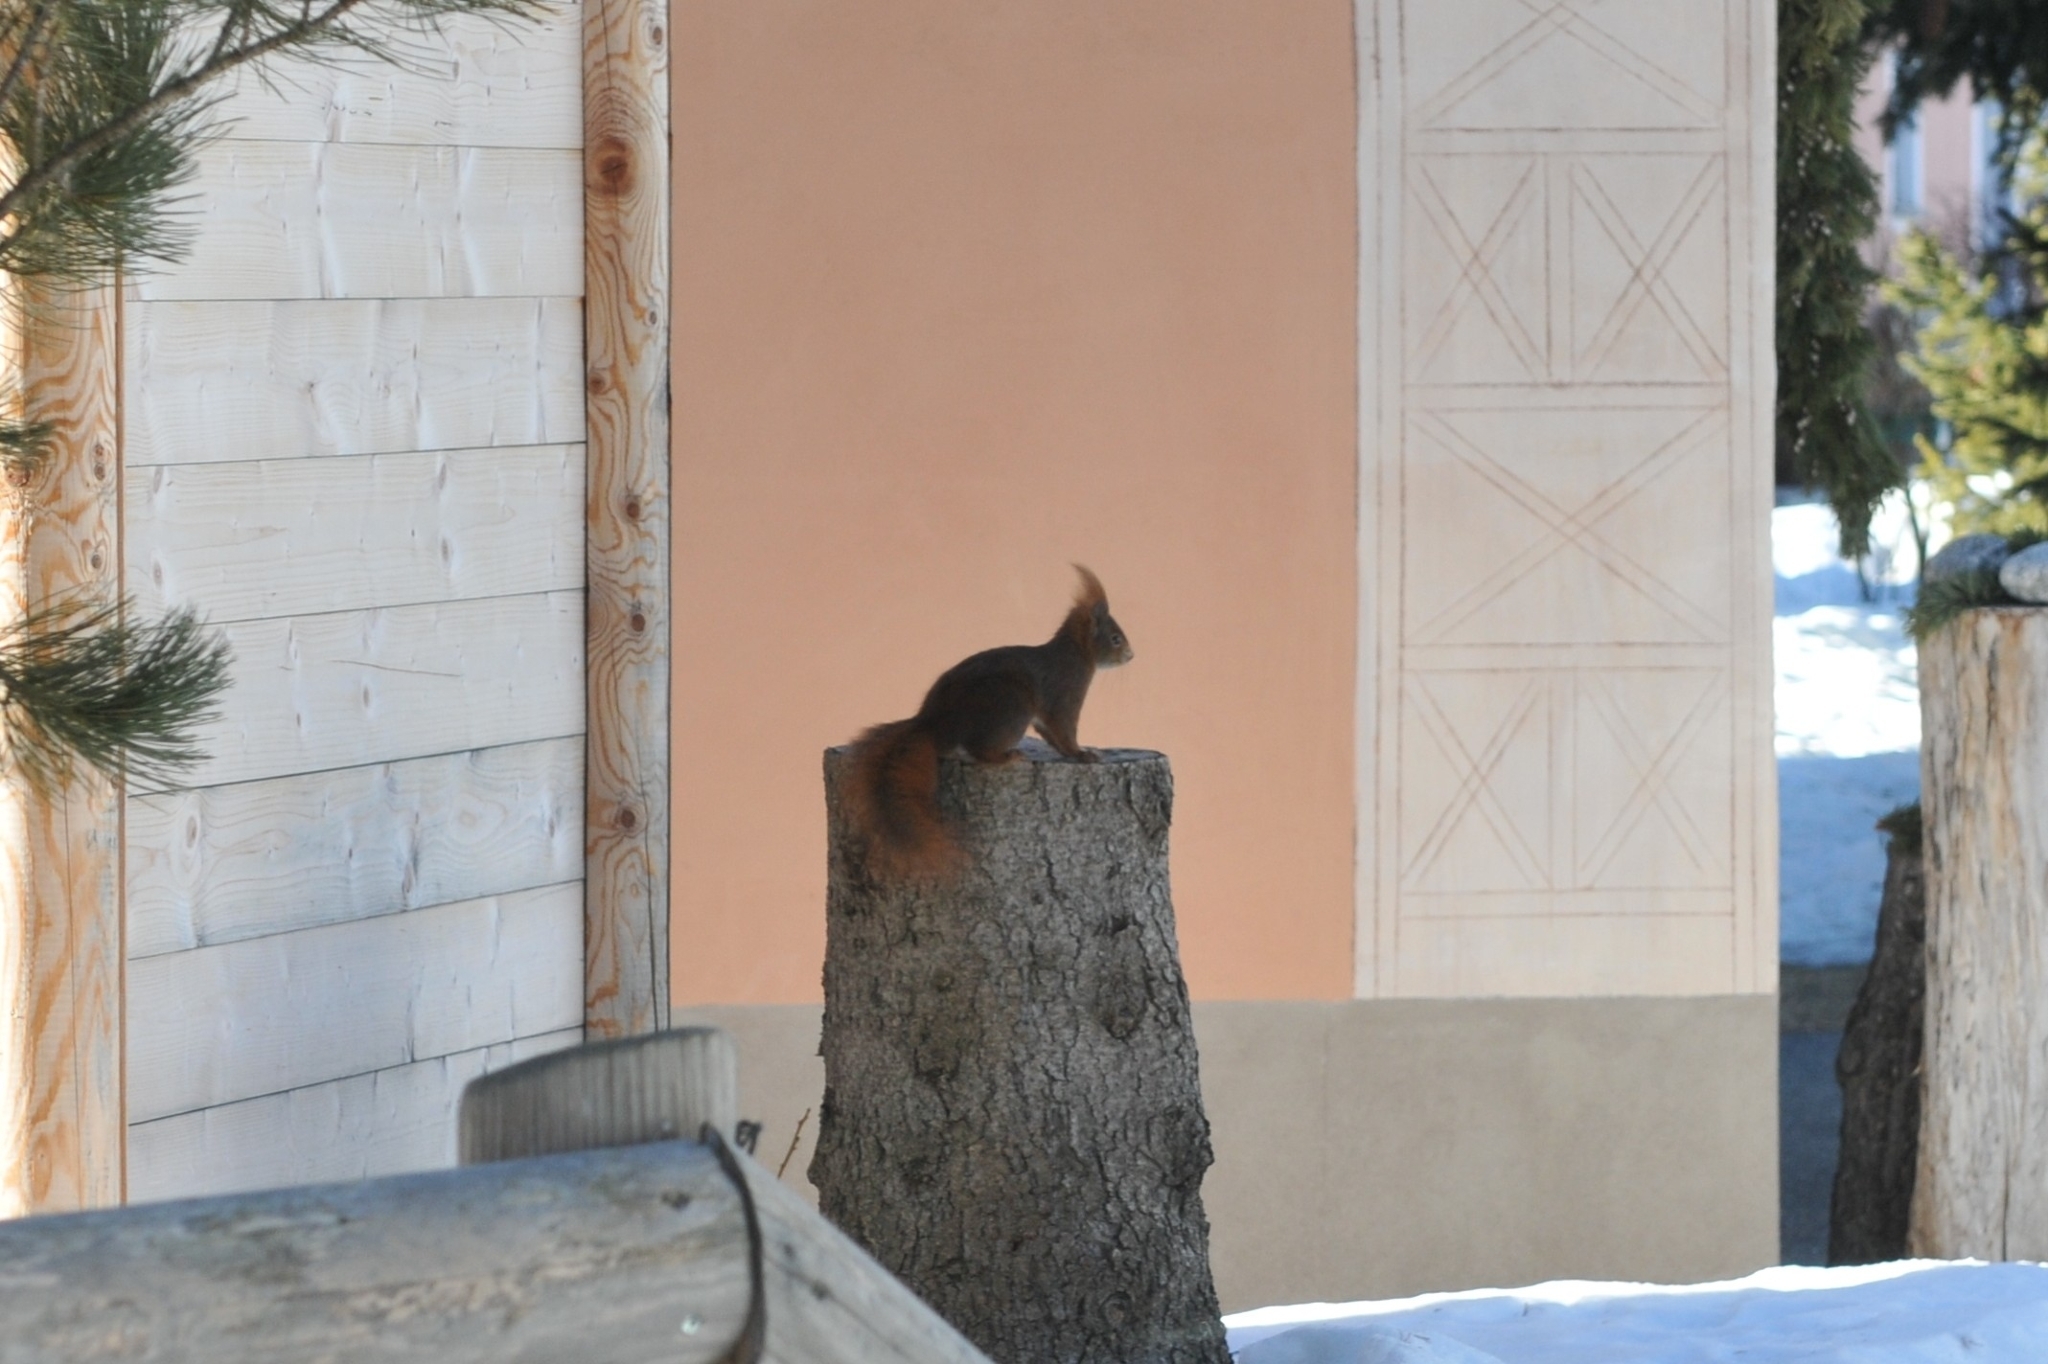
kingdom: Animalia
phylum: Chordata
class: Mammalia
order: Rodentia
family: Sciuridae
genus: Sciurus
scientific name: Sciurus vulgaris
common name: Eurasian red squirrel
